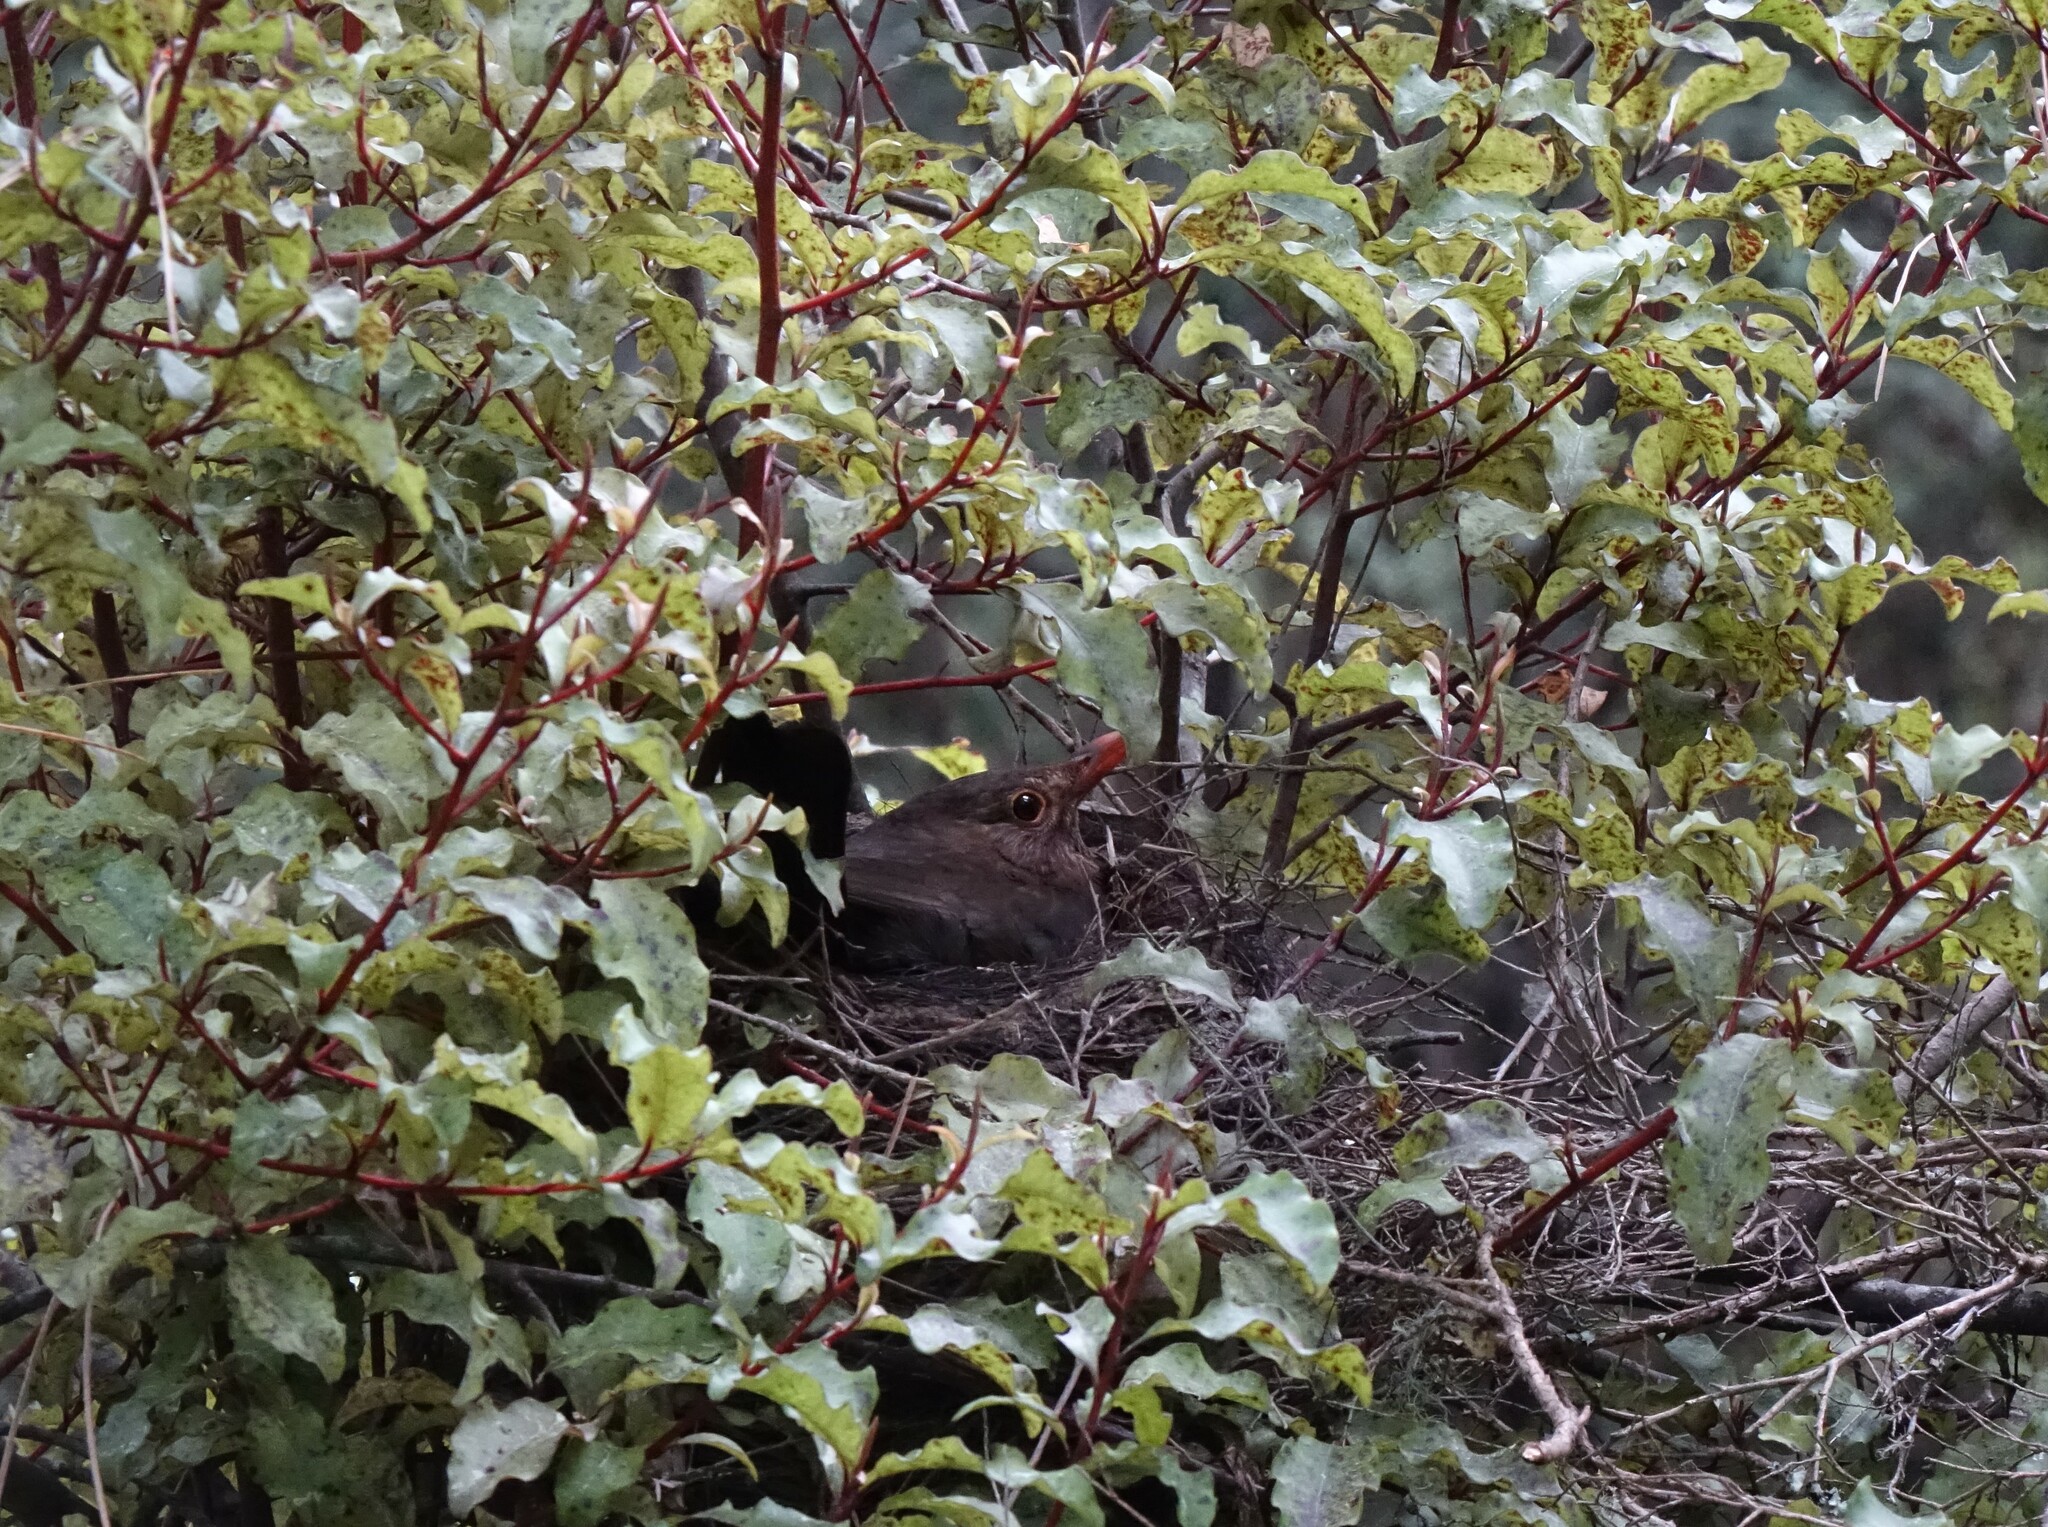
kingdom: Animalia
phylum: Chordata
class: Aves
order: Passeriformes
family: Turdidae
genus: Turdus
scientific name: Turdus merula
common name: Common blackbird
